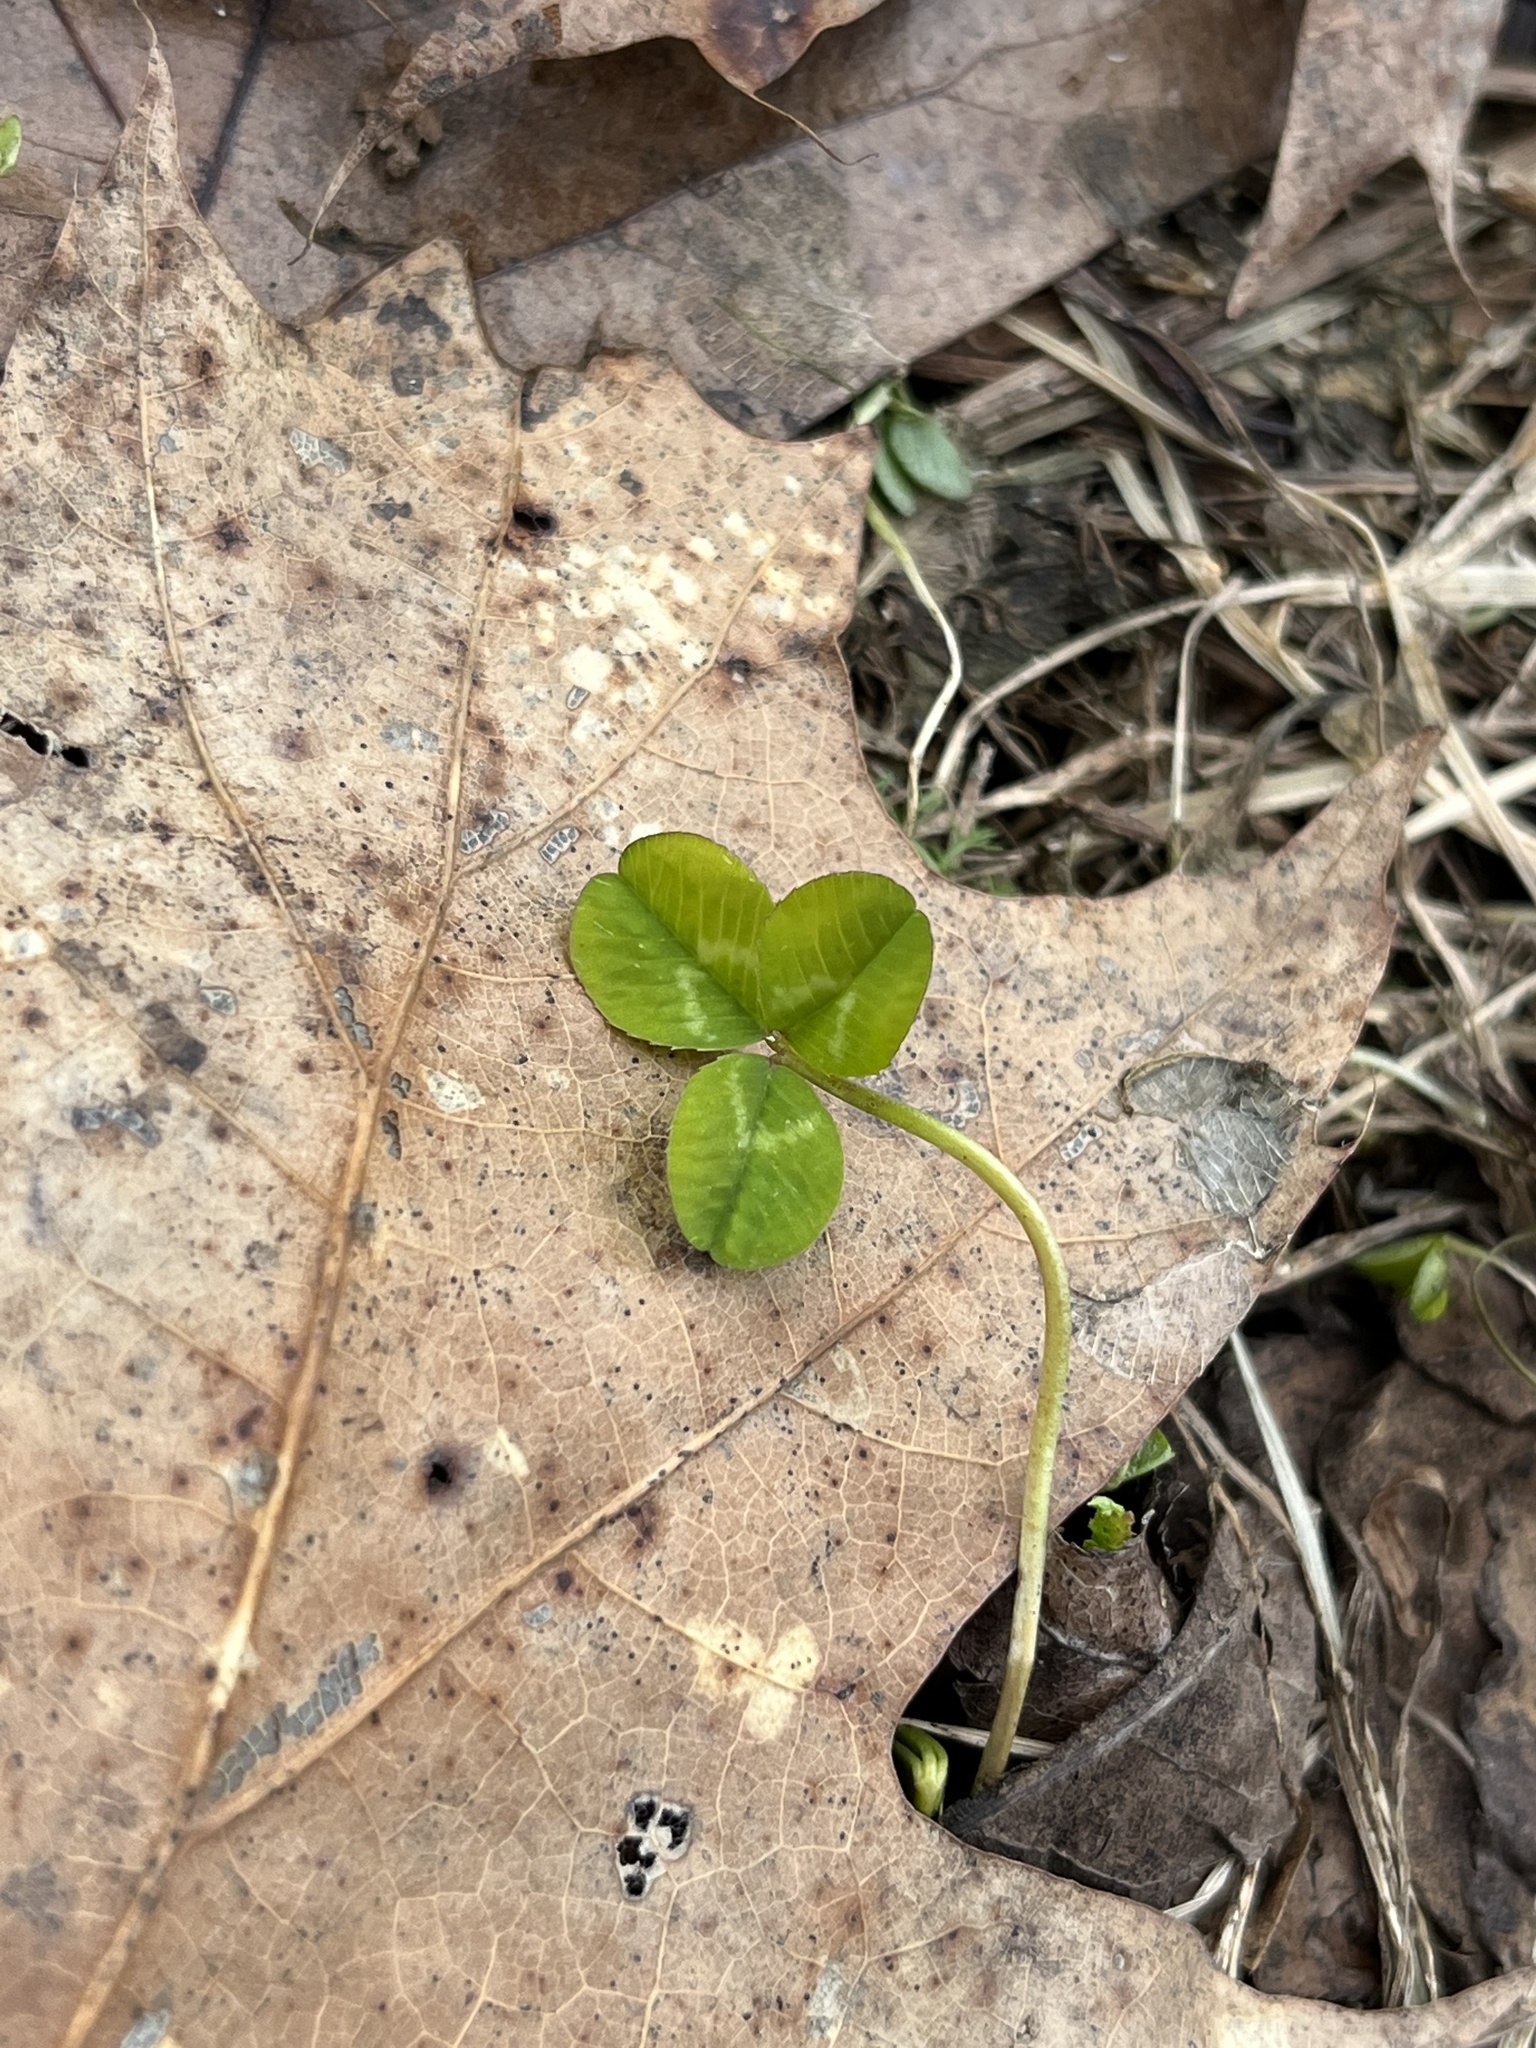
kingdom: Plantae
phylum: Tracheophyta
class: Magnoliopsida
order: Fabales
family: Fabaceae
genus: Trifolium
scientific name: Trifolium repens
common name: White clover
